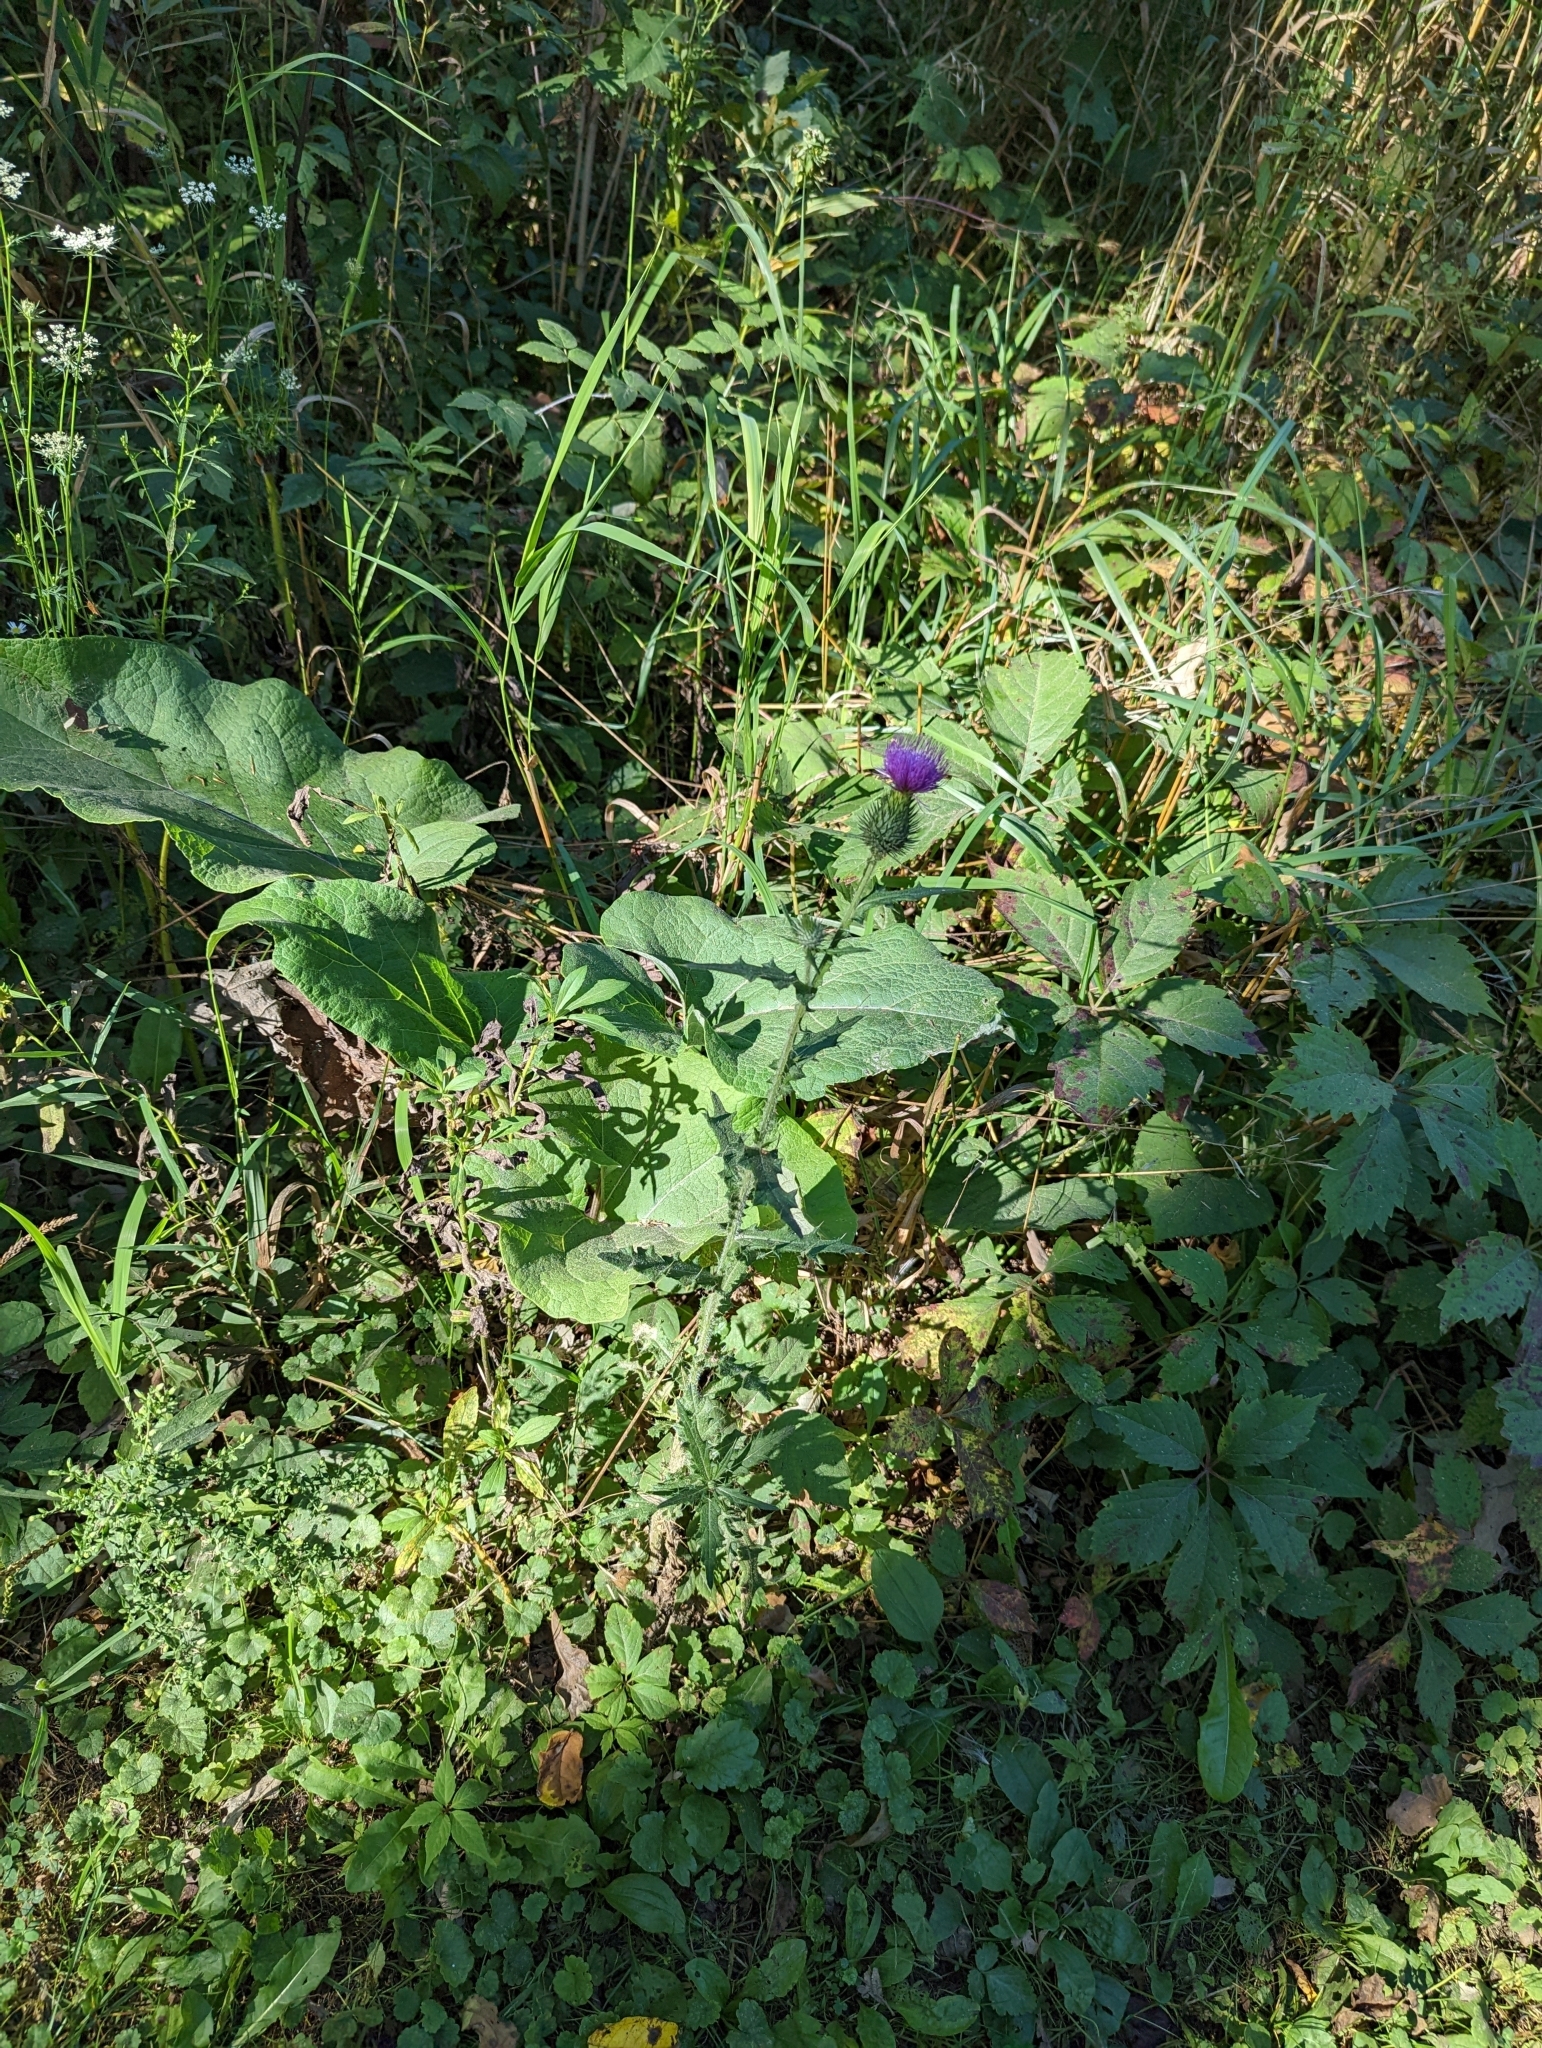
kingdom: Plantae
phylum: Tracheophyta
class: Magnoliopsida
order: Asterales
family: Asteraceae
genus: Cirsium
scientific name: Cirsium vulgare
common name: Bull thistle
